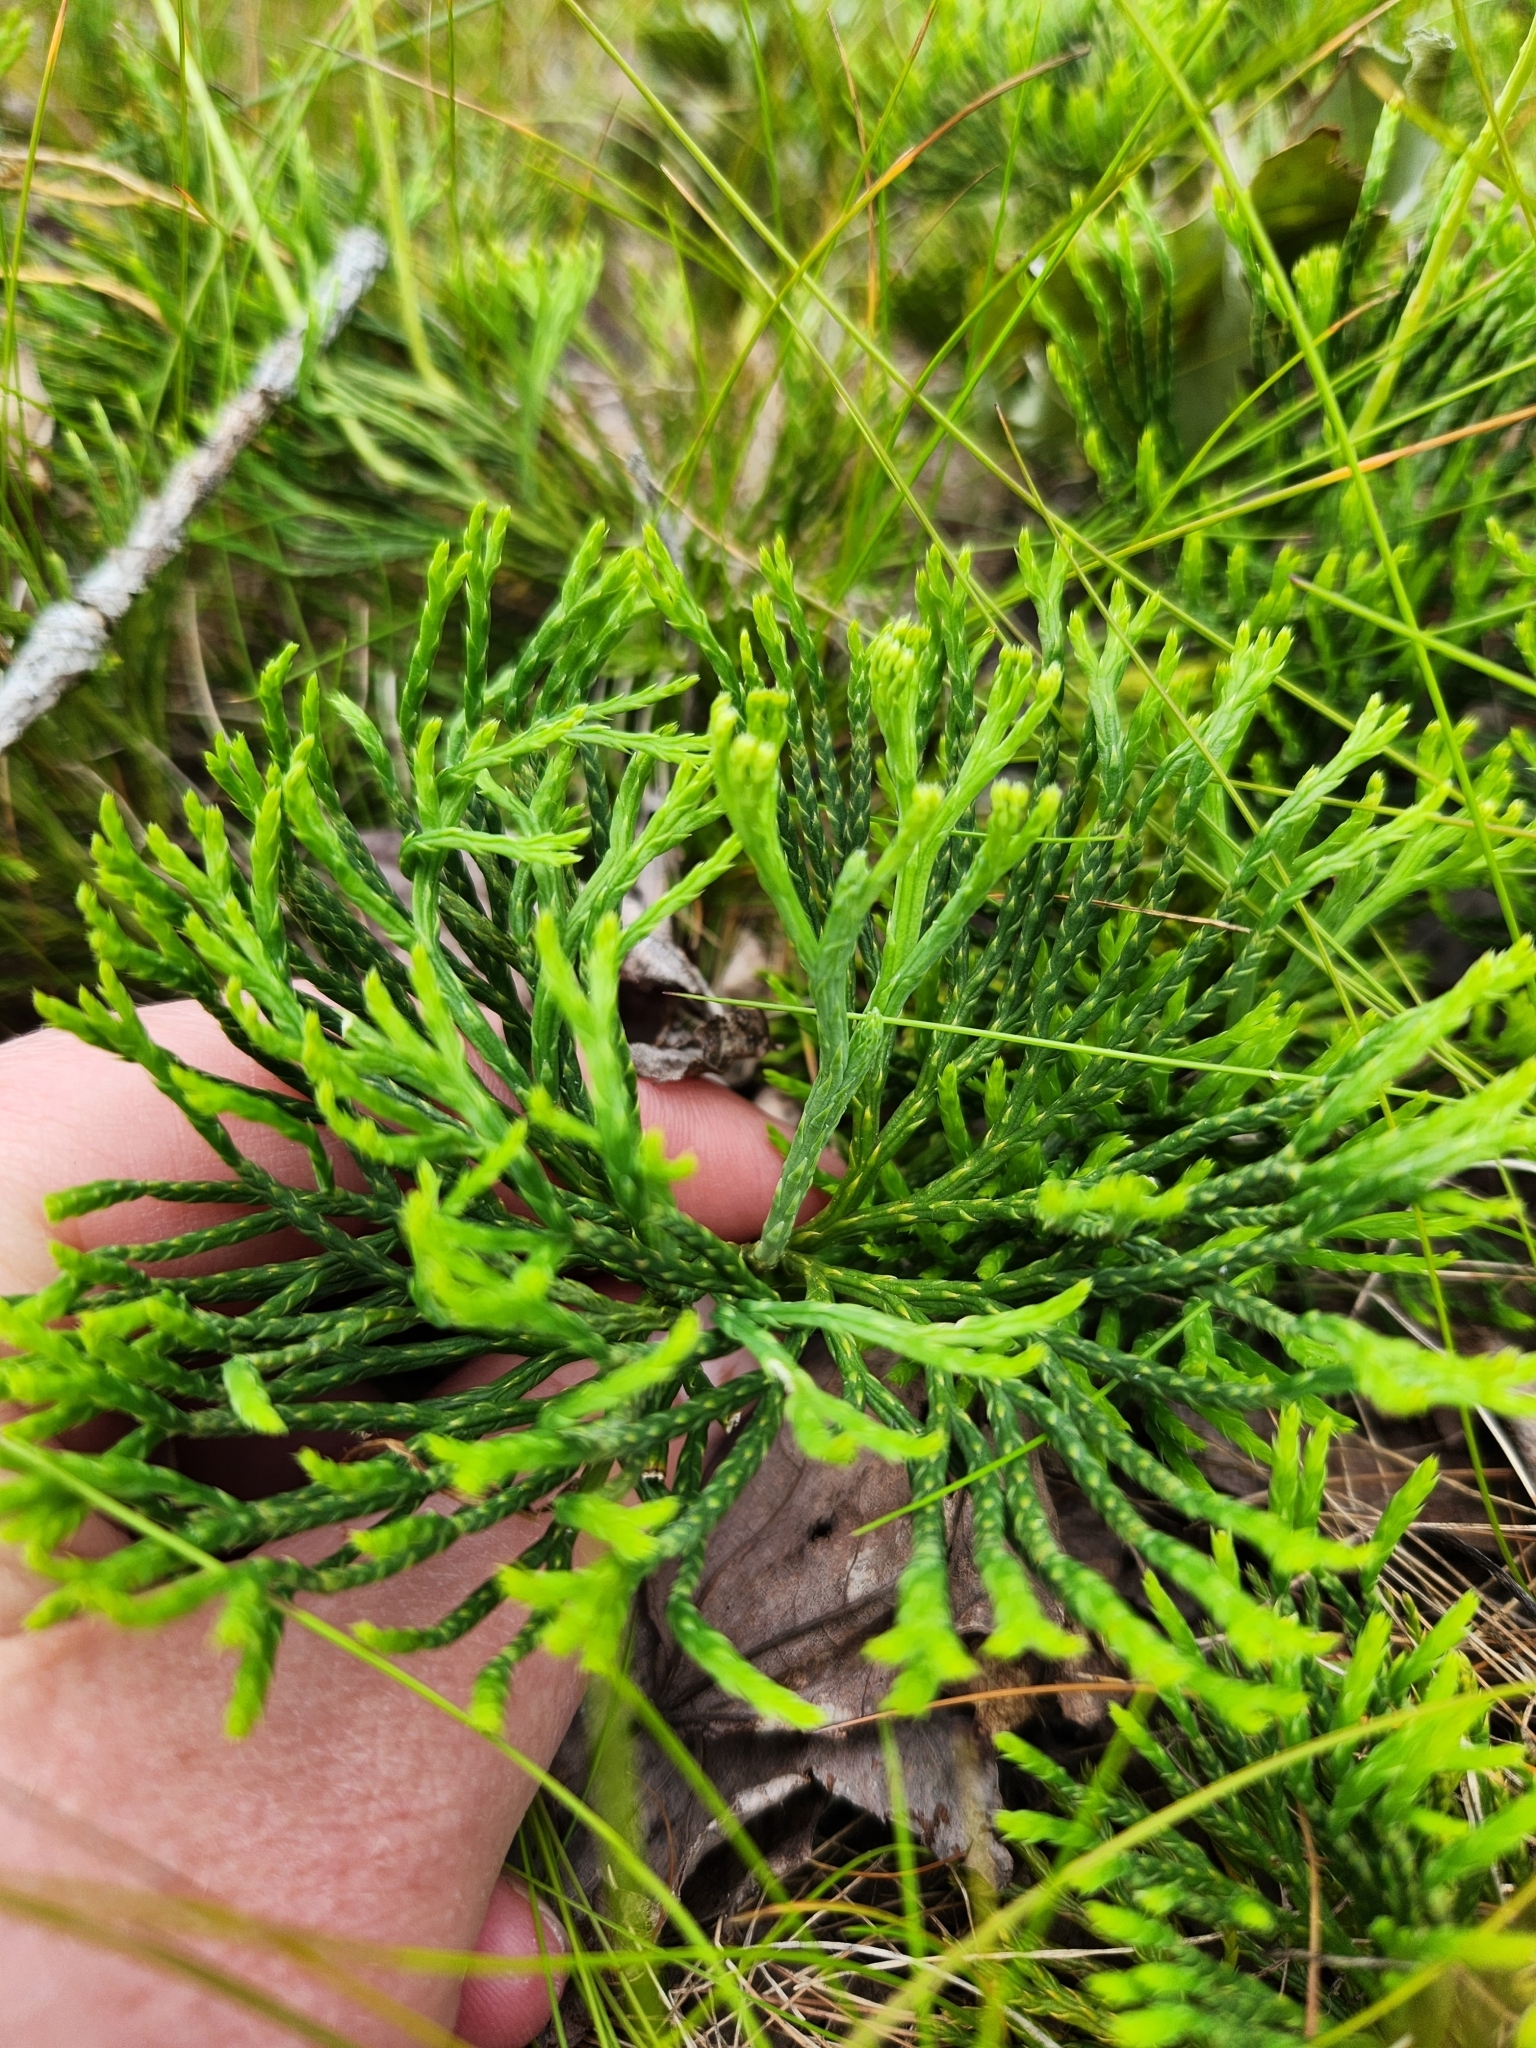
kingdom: Plantae
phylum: Tracheophyta
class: Lycopodiopsida
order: Lycopodiales
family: Lycopodiaceae
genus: Diphasiastrum
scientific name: Diphasiastrum tristachyum
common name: Blue ground-cedar
